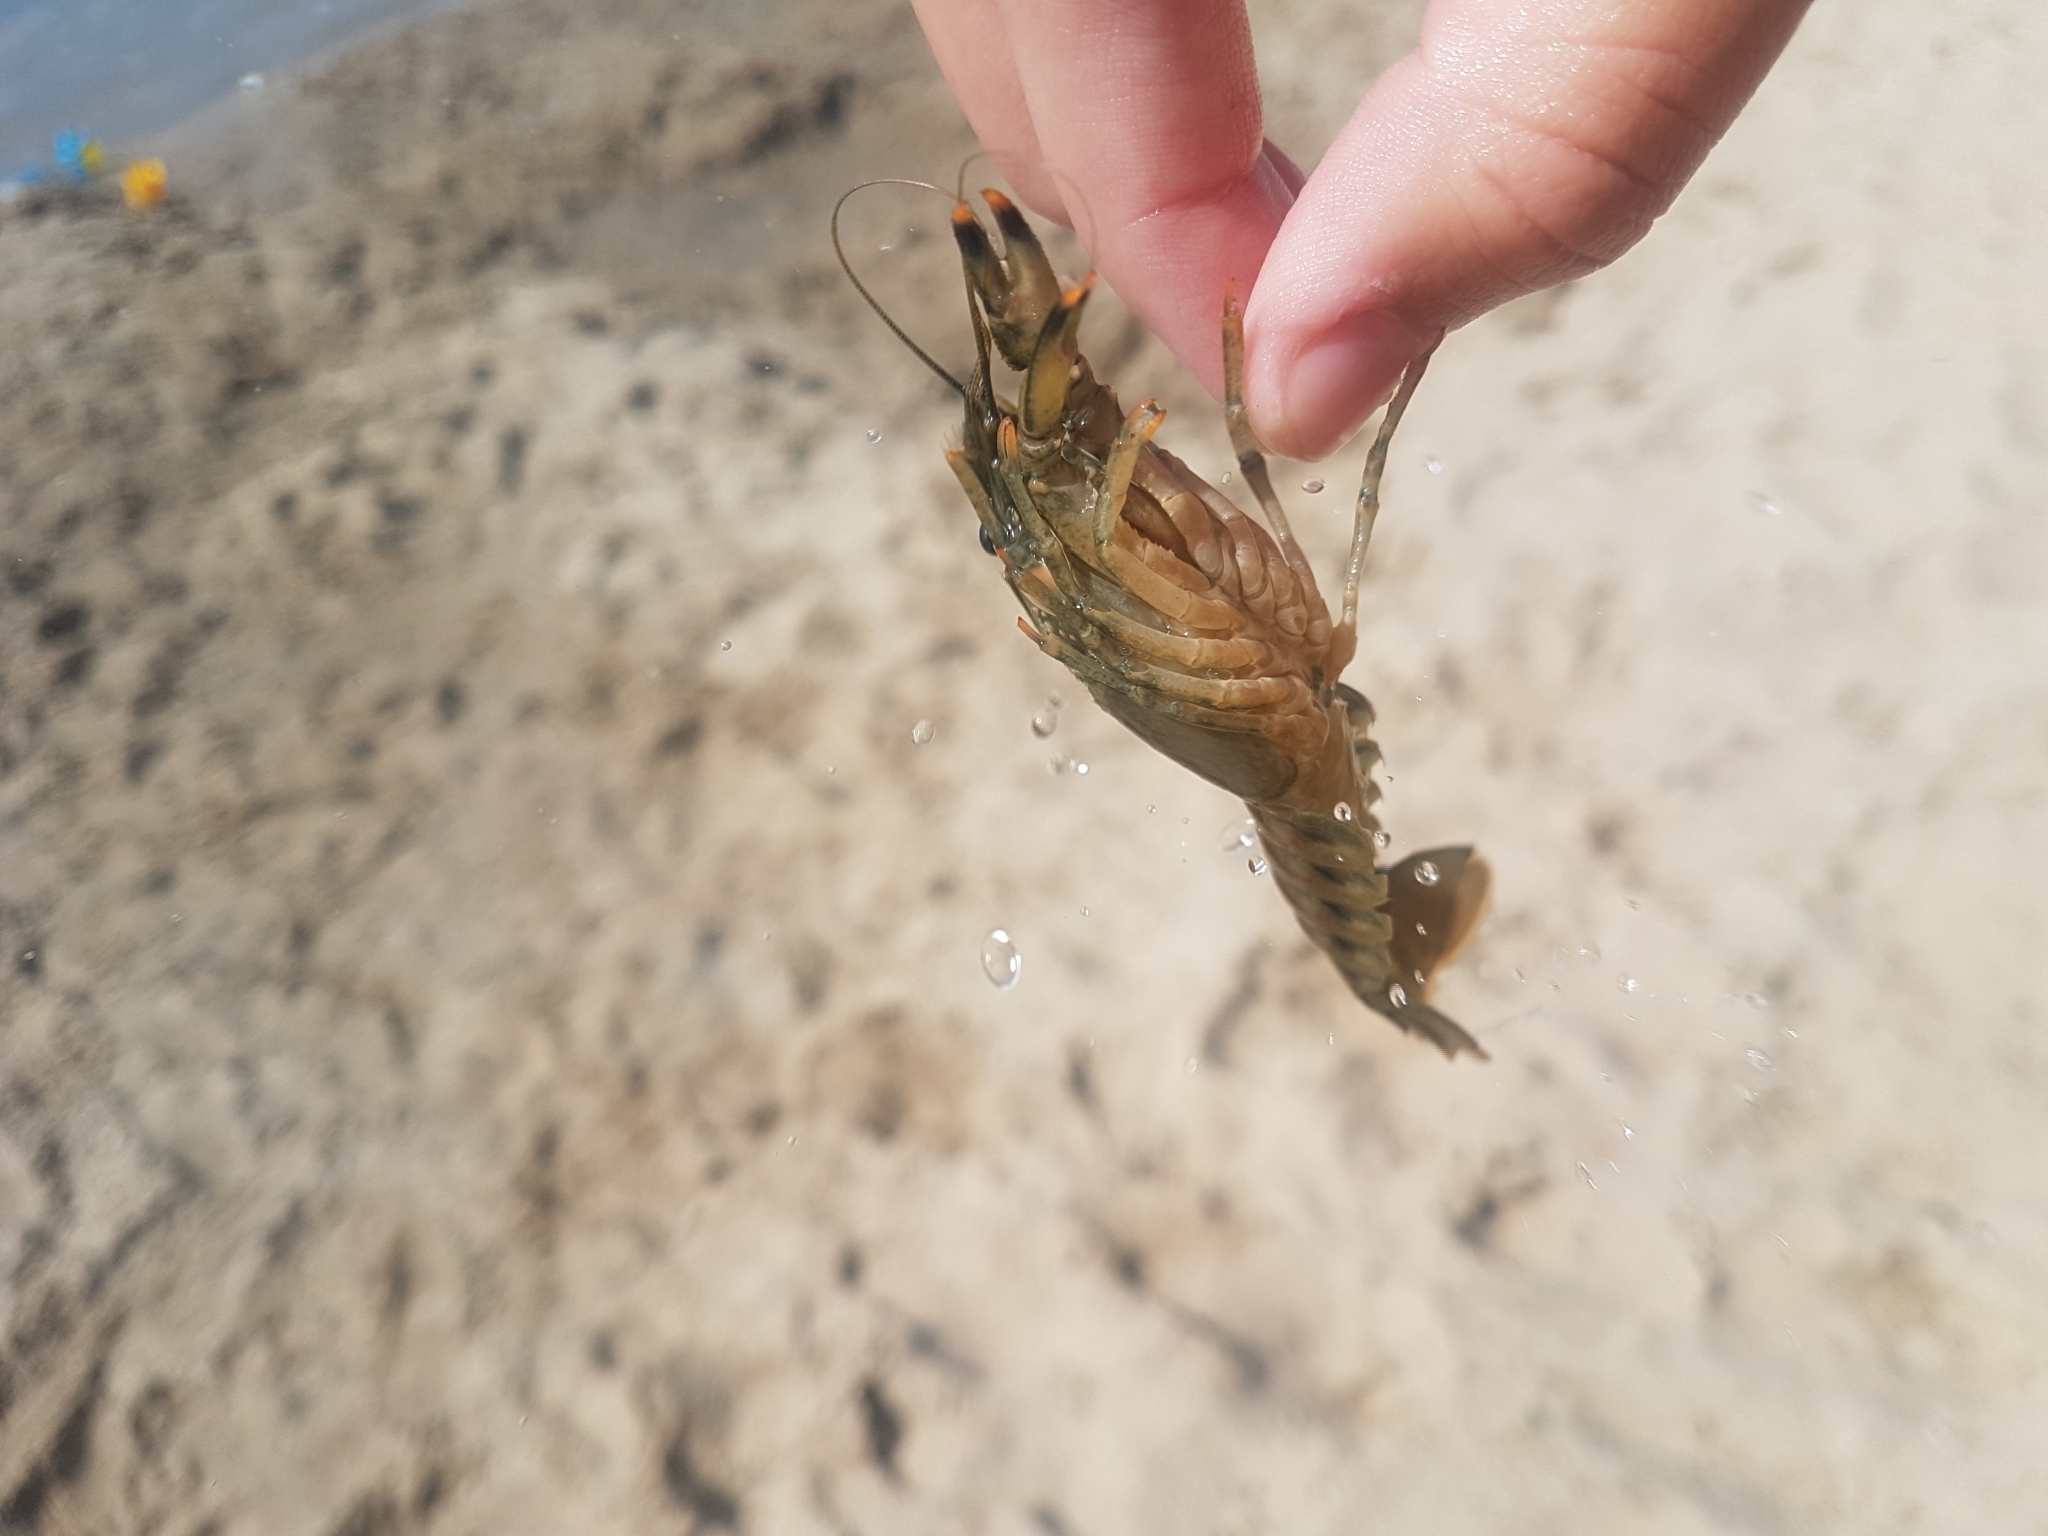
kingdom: Animalia
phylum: Arthropoda
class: Malacostraca
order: Decapoda
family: Cambaridae
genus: Faxonius
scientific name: Faxonius limosus
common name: American crayfish
